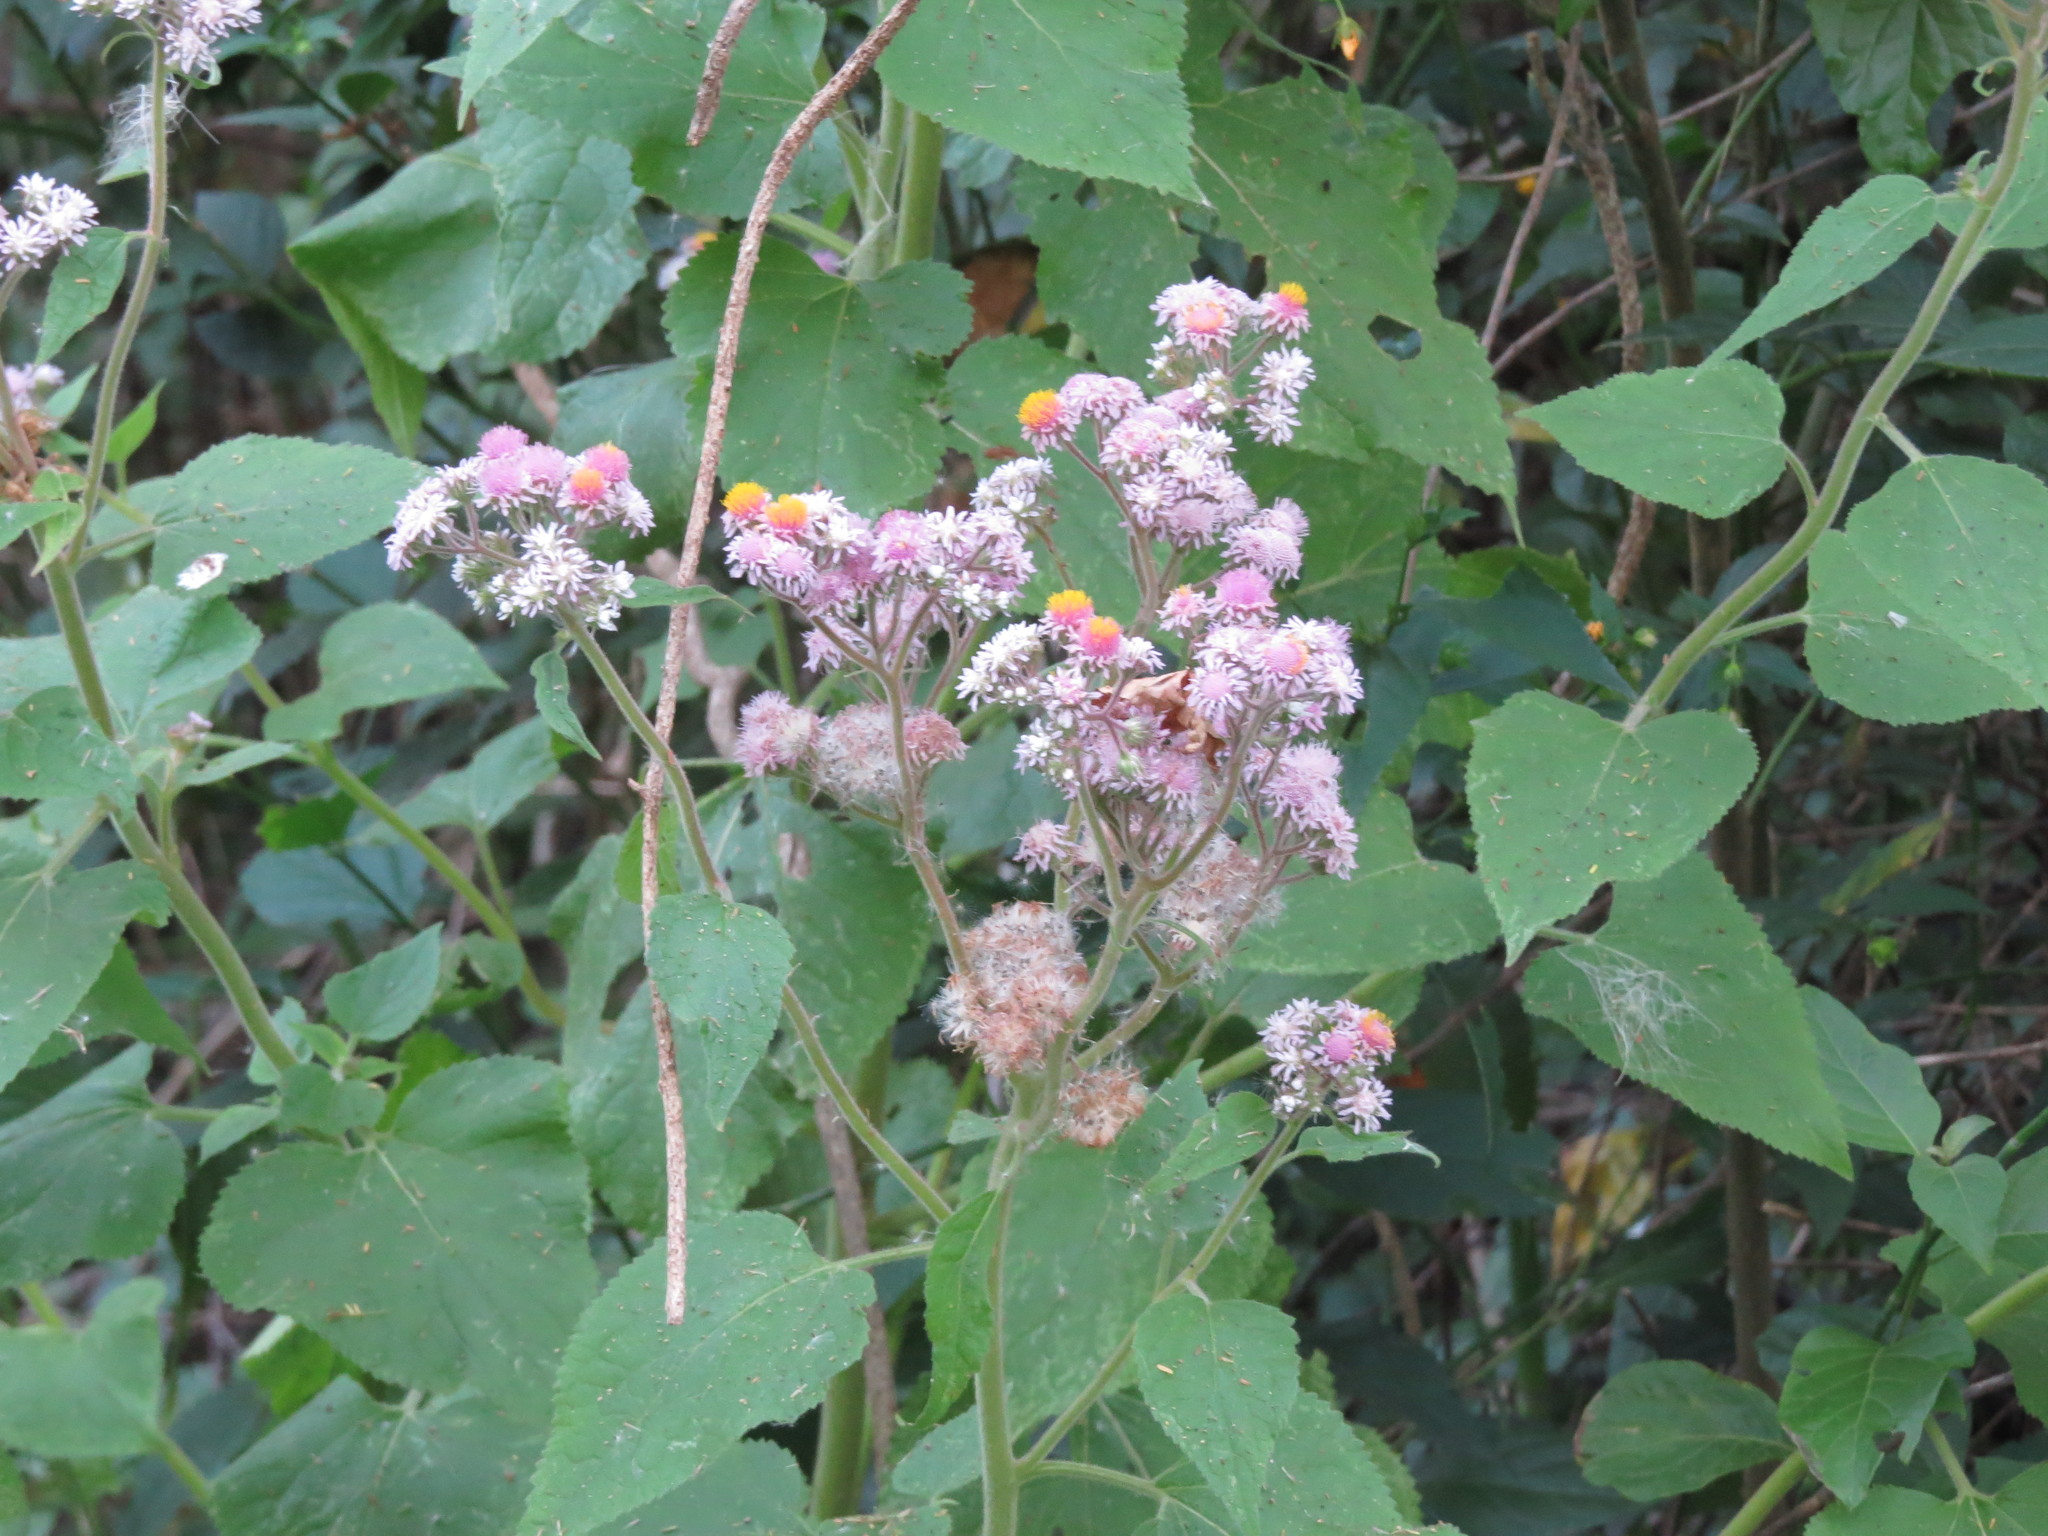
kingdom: Plantae
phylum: Tracheophyta
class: Magnoliopsida
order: Asterales
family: Asteraceae
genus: Urolepis
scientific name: Urolepis hecatantha
